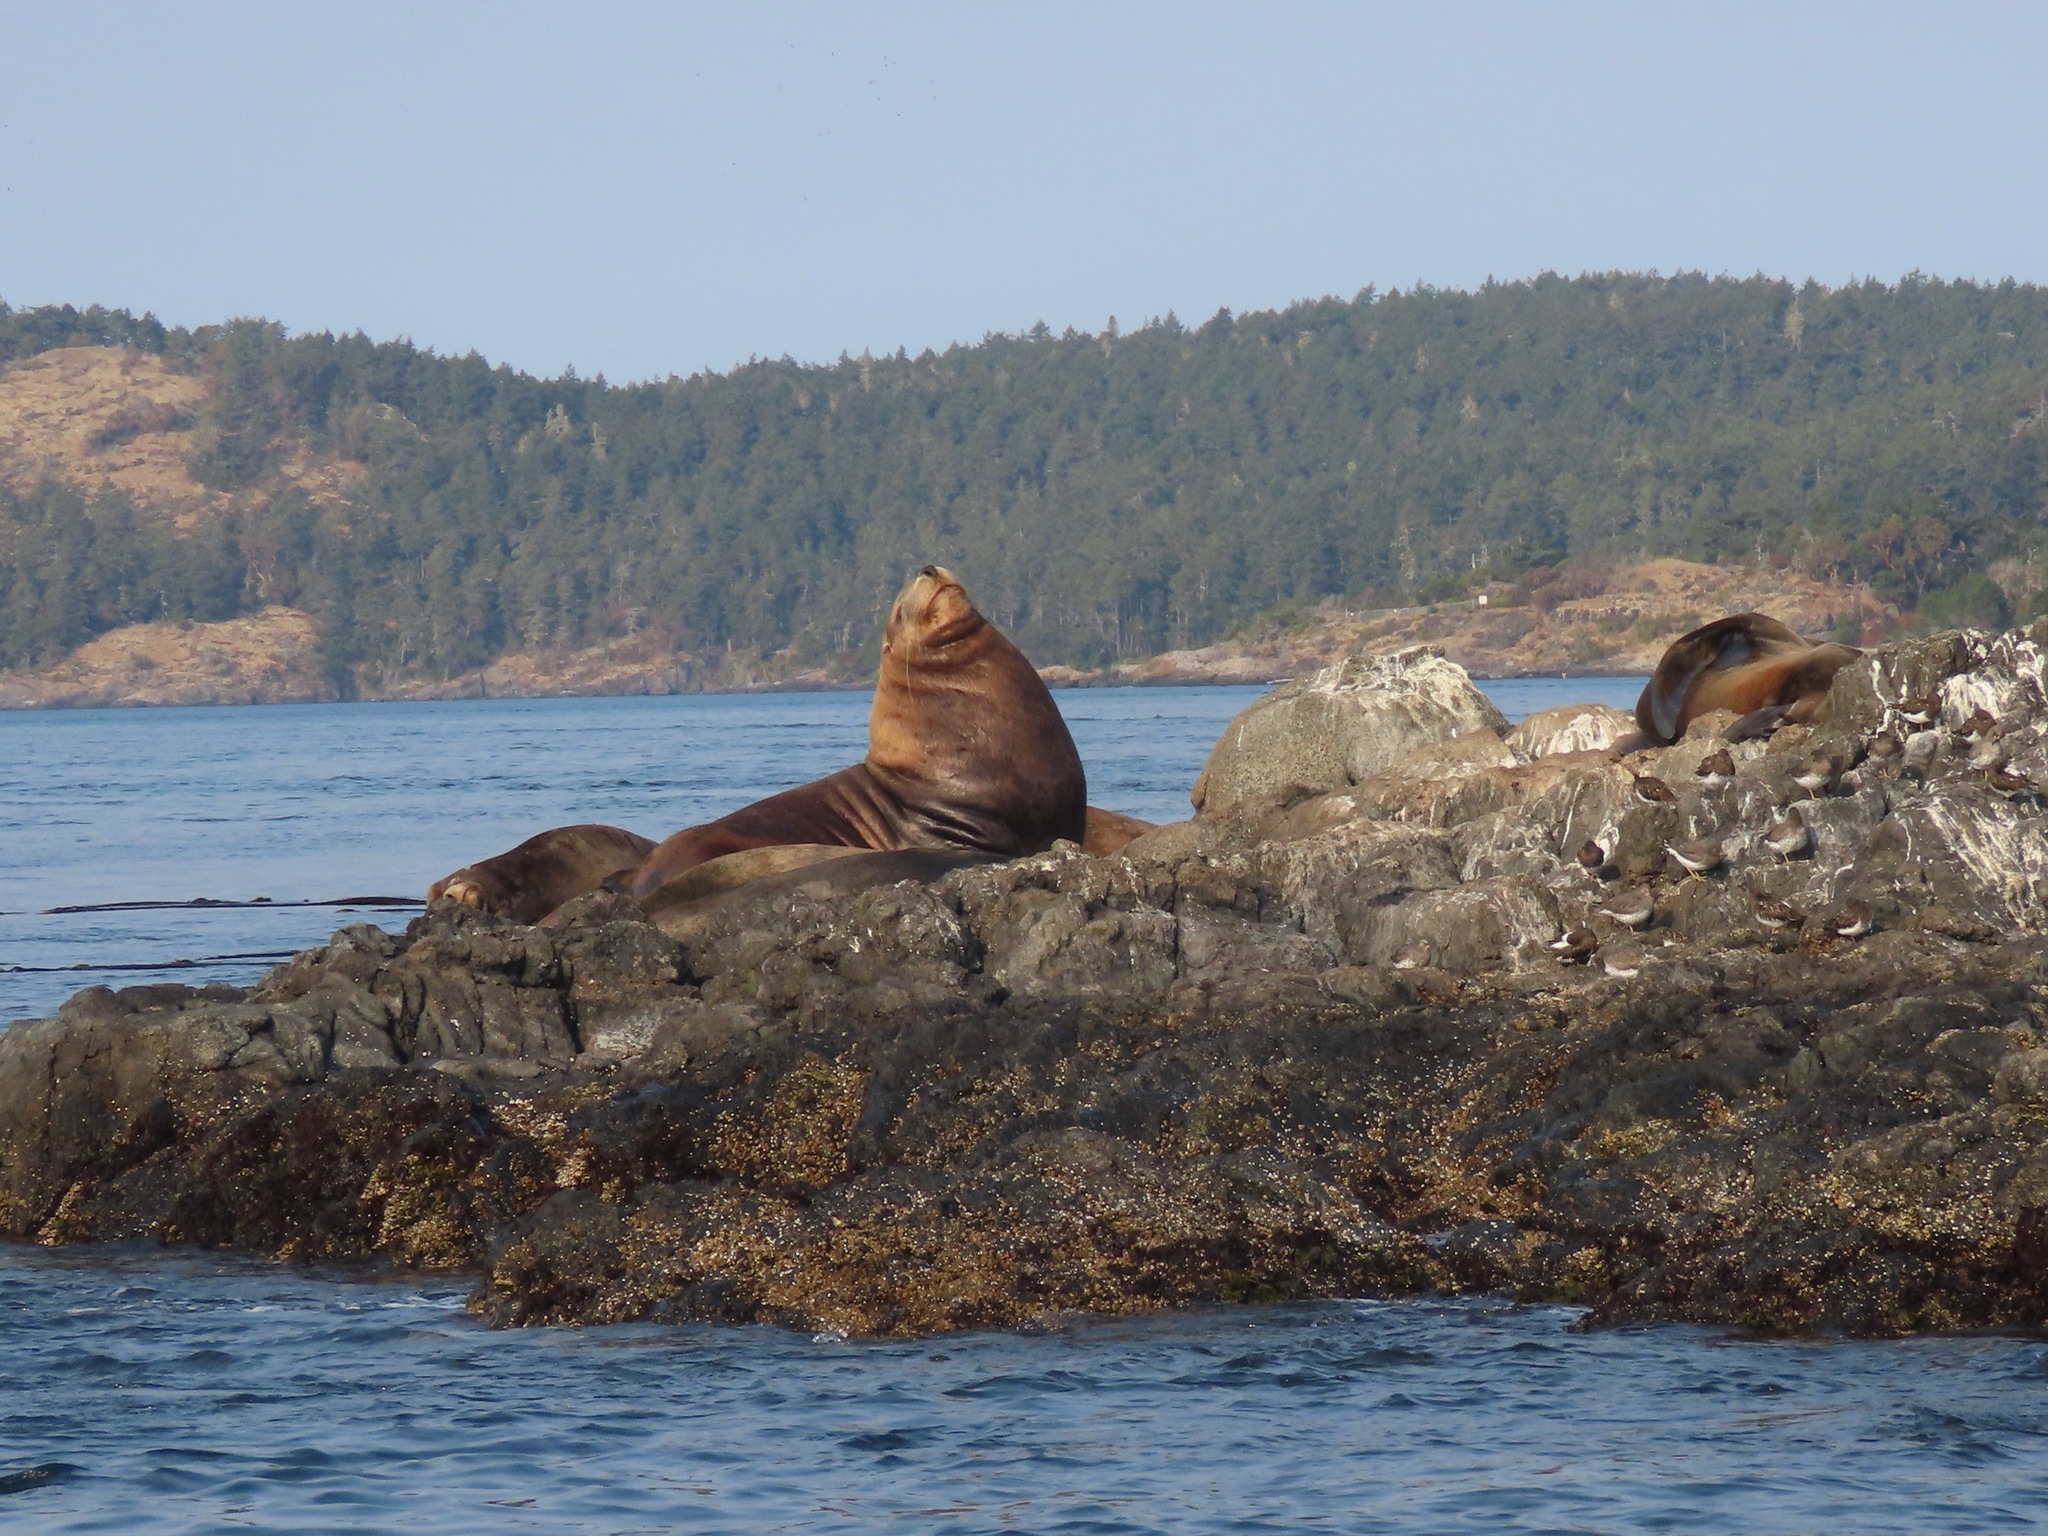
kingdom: Animalia
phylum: Chordata
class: Mammalia
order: Carnivora
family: Otariidae
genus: Eumetopias
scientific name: Eumetopias jubatus
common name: Steller sea lion
